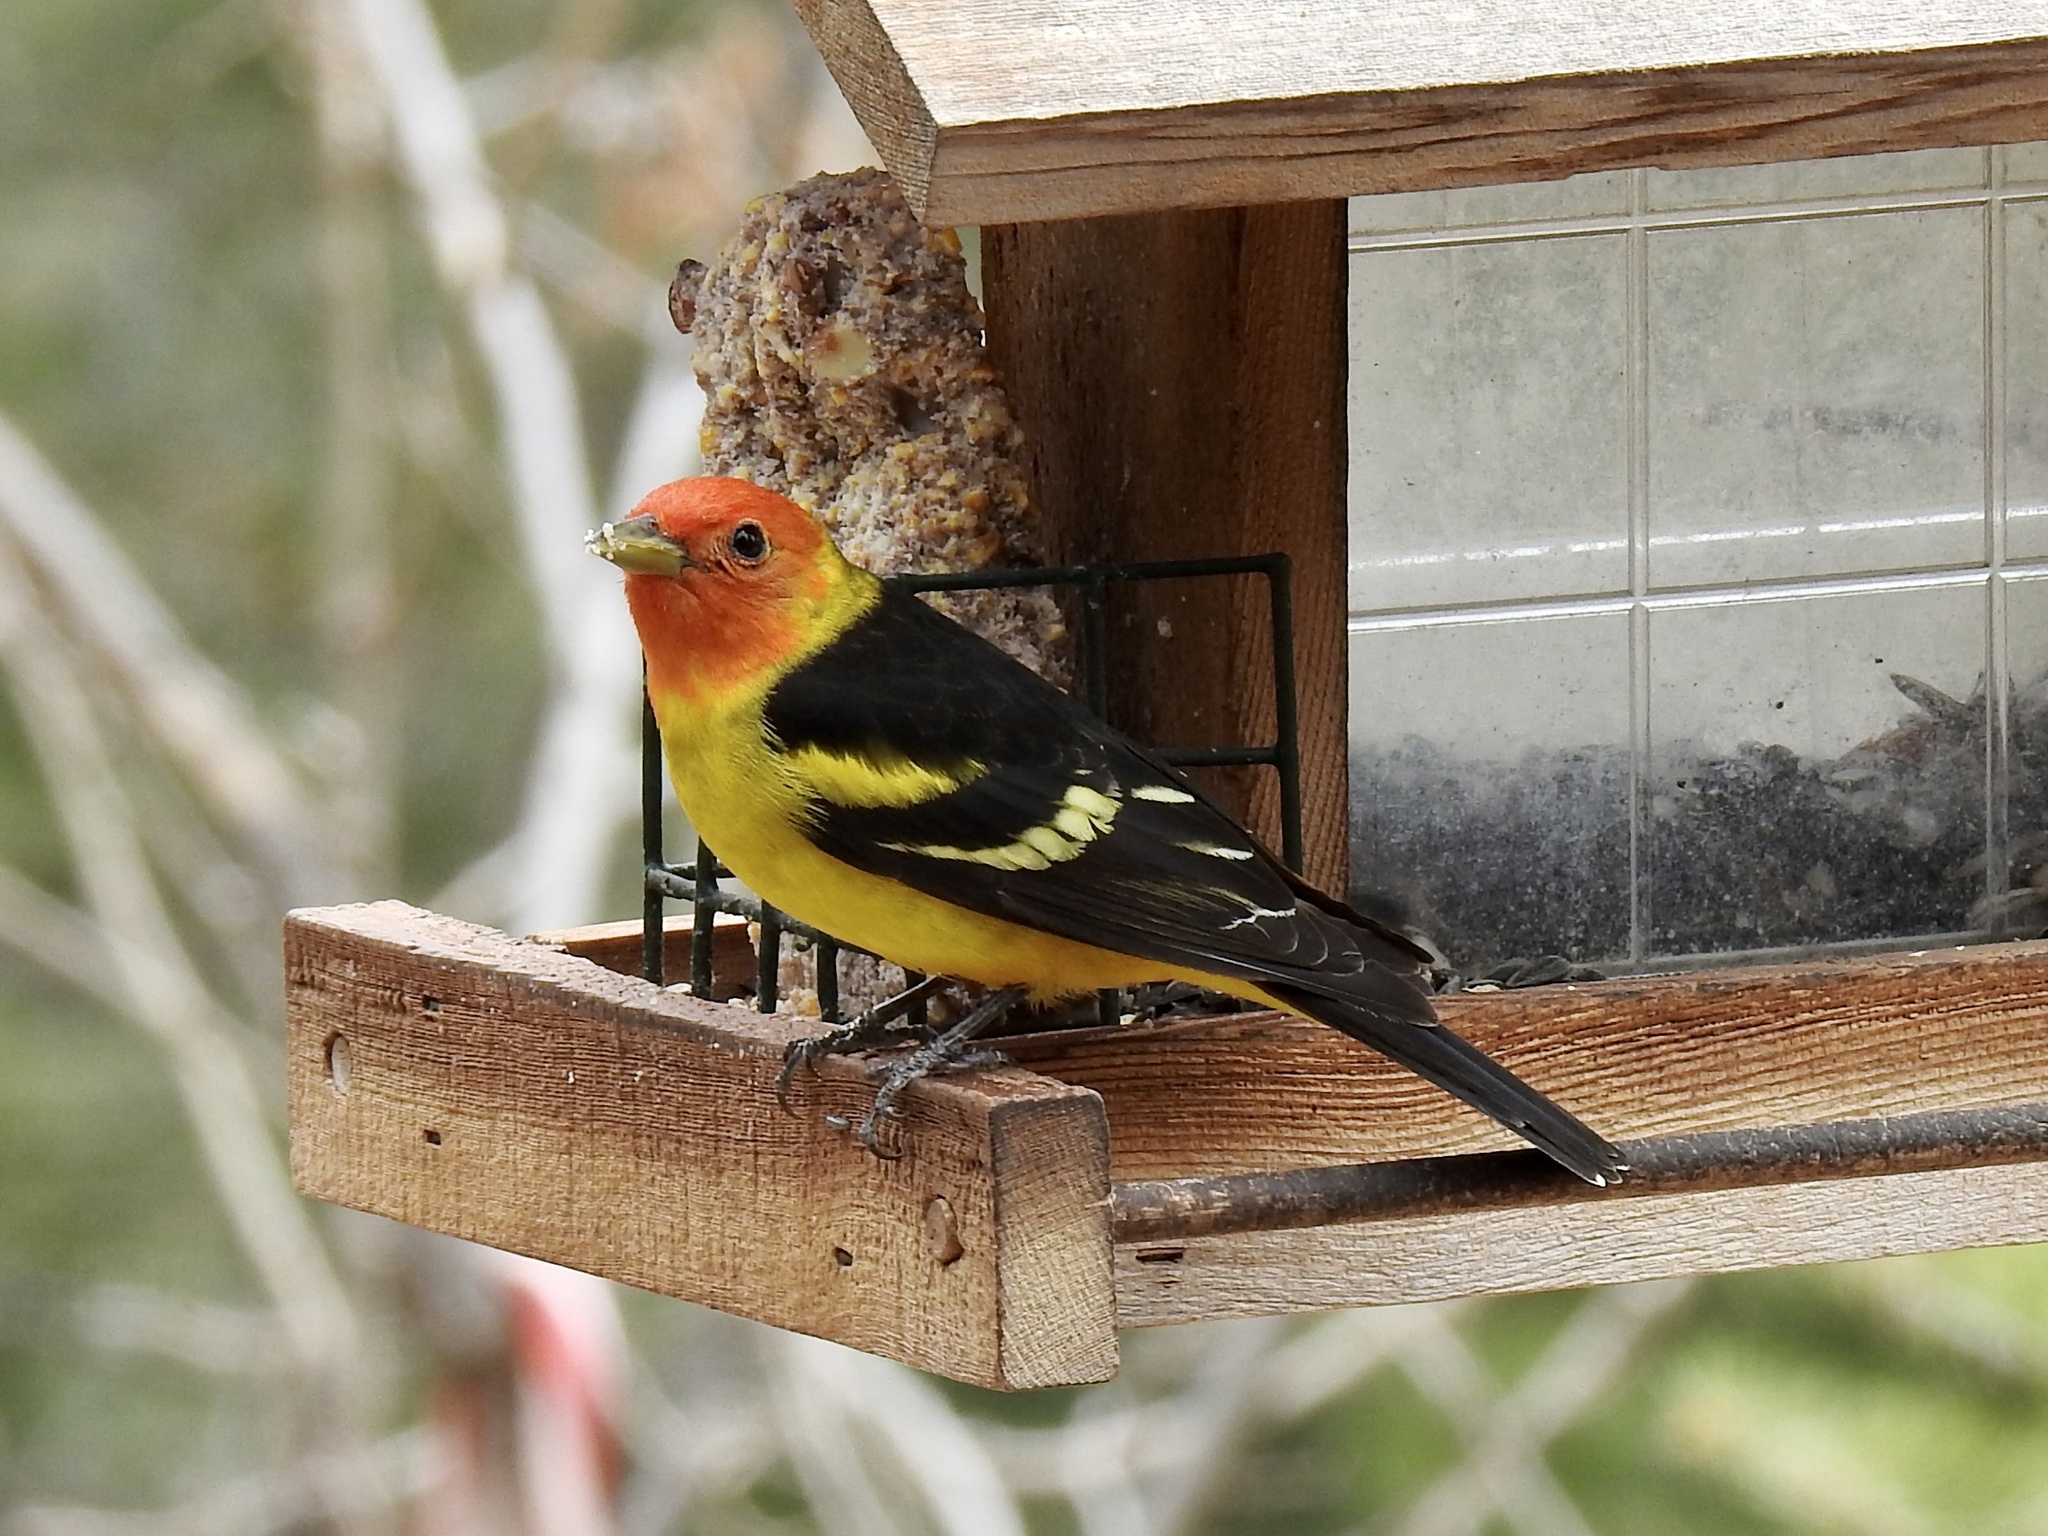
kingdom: Animalia
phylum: Chordata
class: Aves
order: Passeriformes
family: Cardinalidae
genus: Piranga
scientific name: Piranga ludoviciana
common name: Western tanager
